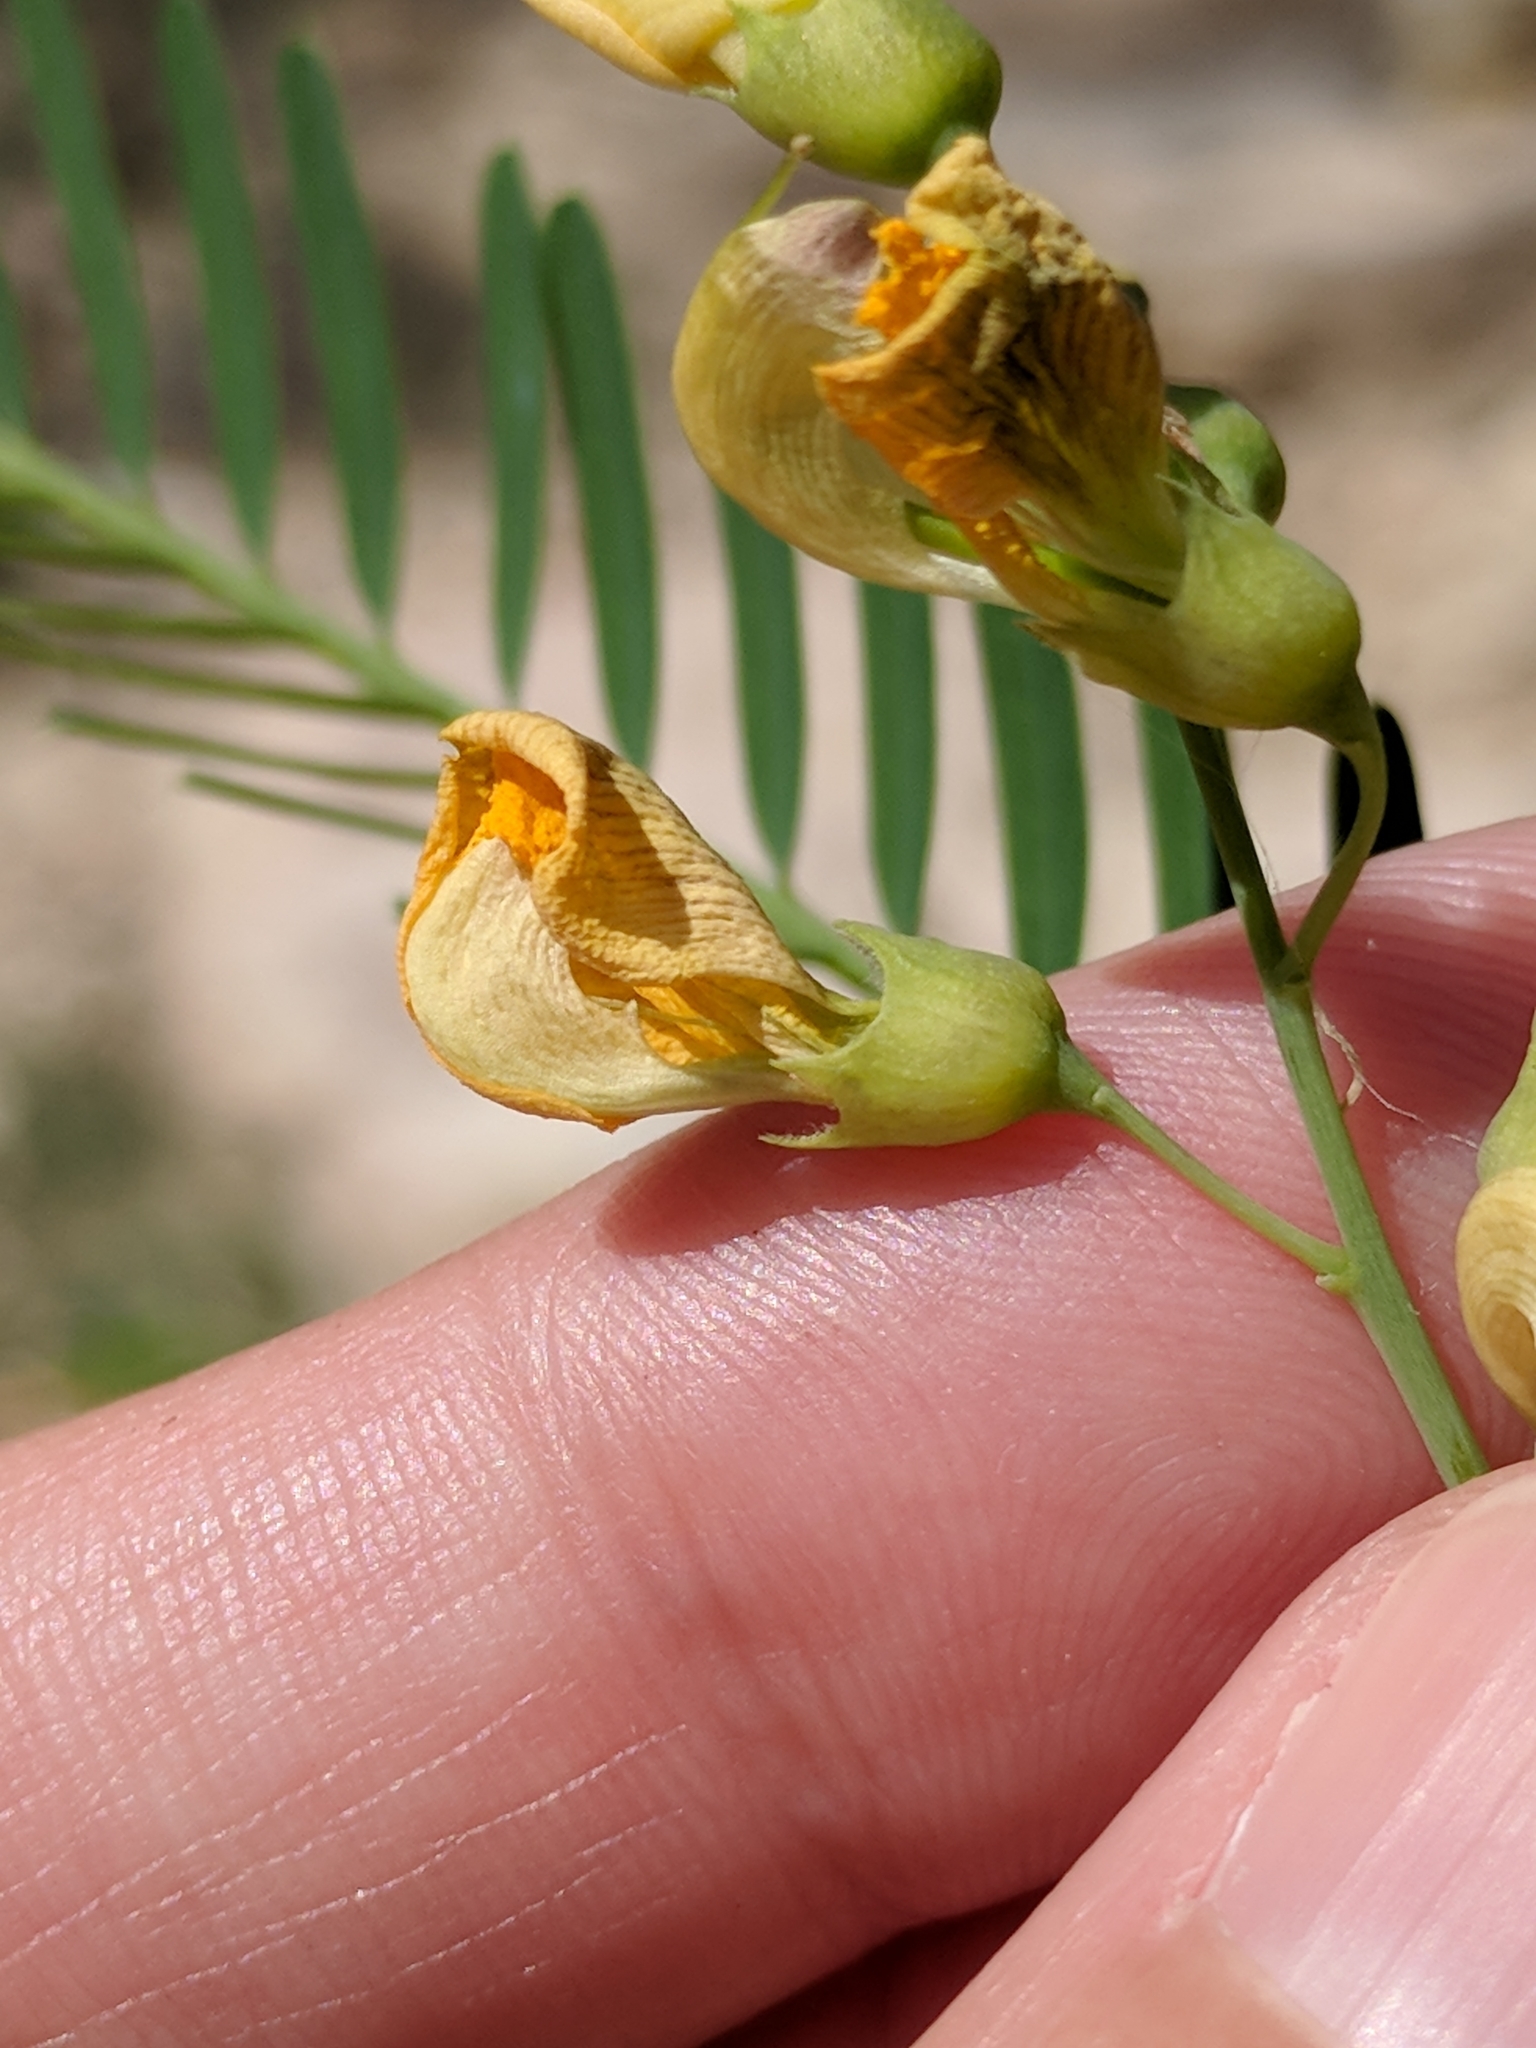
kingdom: Plantae
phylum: Tracheophyta
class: Magnoliopsida
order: Fabales
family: Fabaceae
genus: Sesbania
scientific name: Sesbania herbacea
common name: Bigpod sesbania
